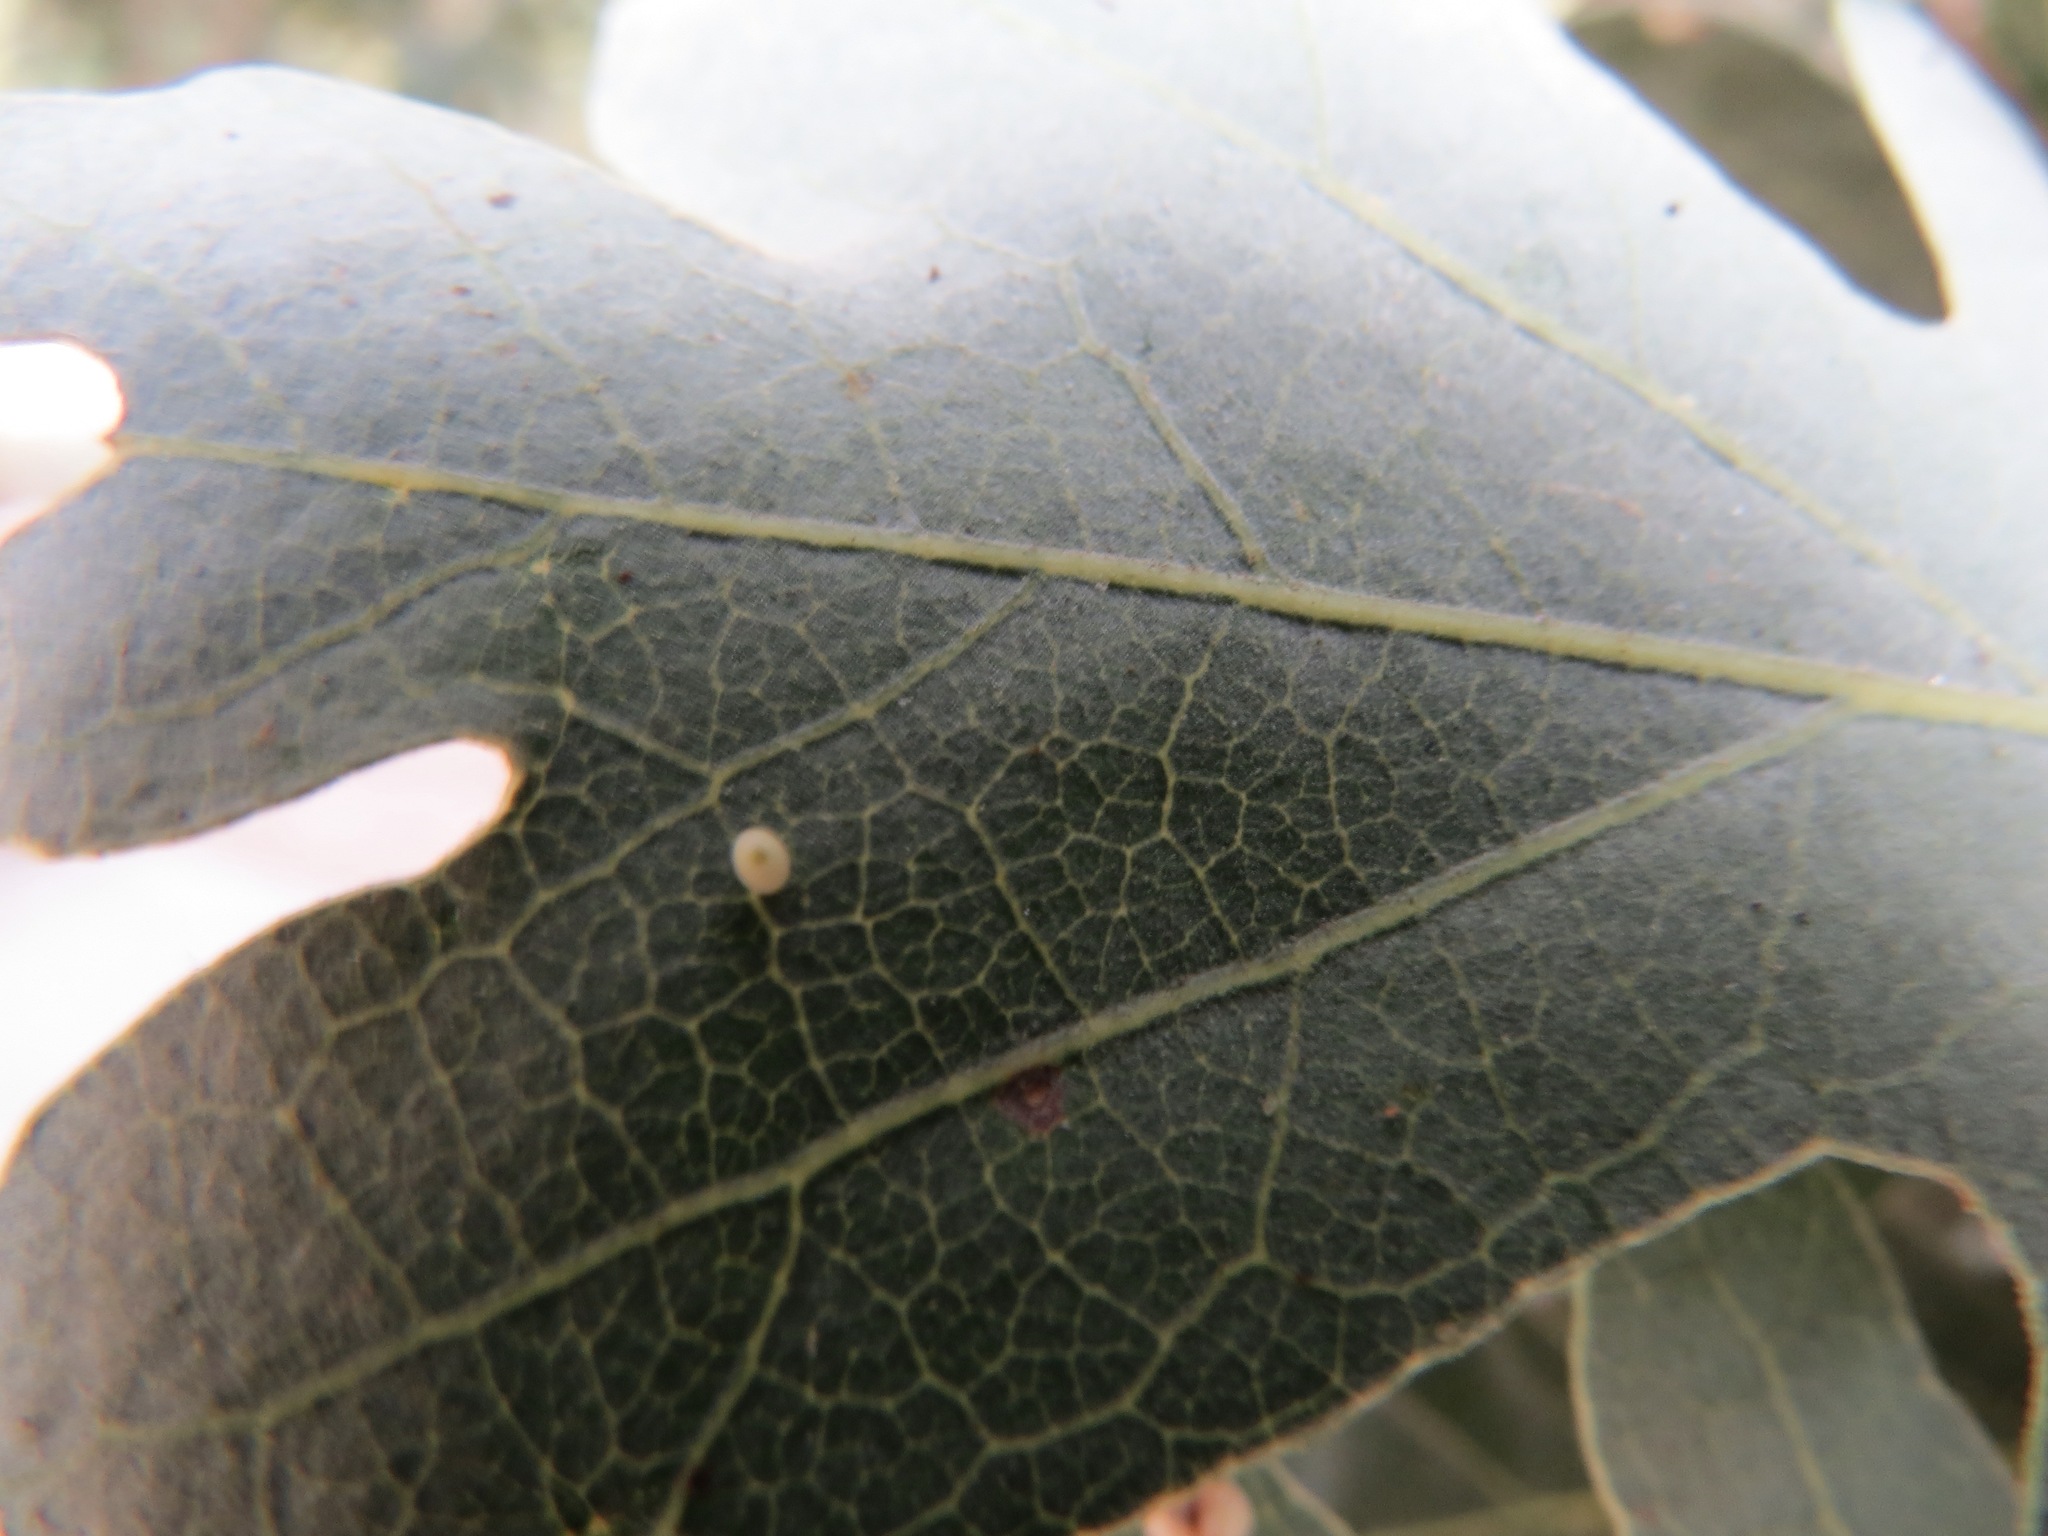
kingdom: Animalia
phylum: Arthropoda
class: Insecta
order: Hymenoptera
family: Cynipidae
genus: Neuroterus
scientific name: Neuroterus saltarius
